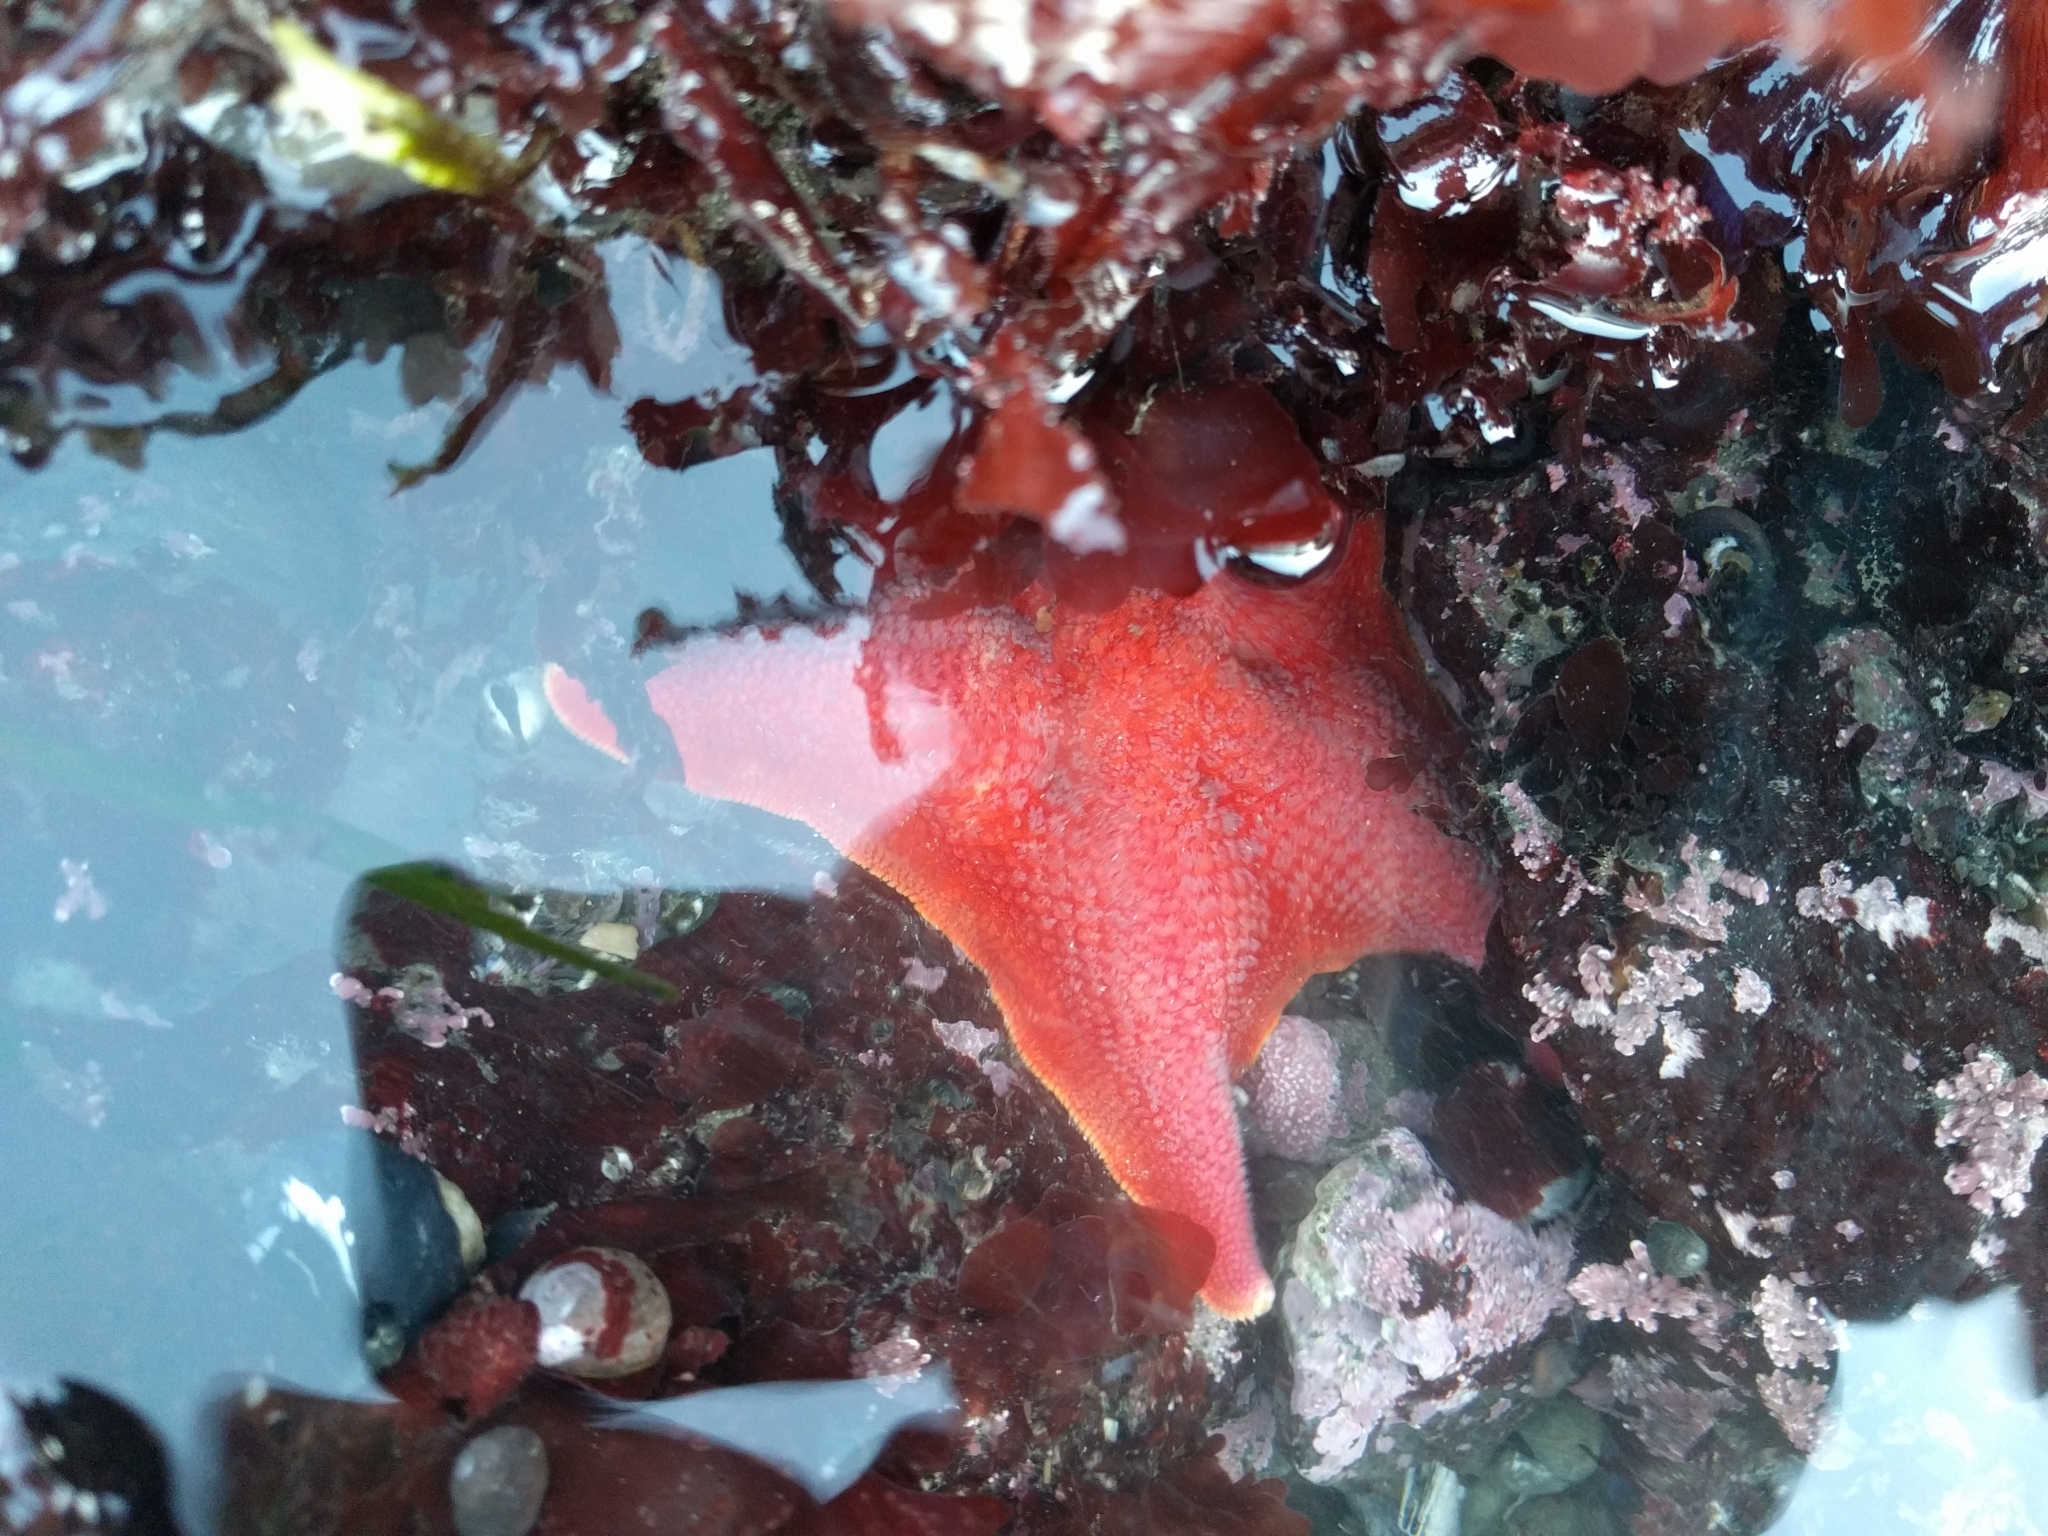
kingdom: Animalia
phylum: Echinodermata
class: Asteroidea
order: Valvatida
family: Asterinidae
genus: Patiria
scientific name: Patiria miniata
